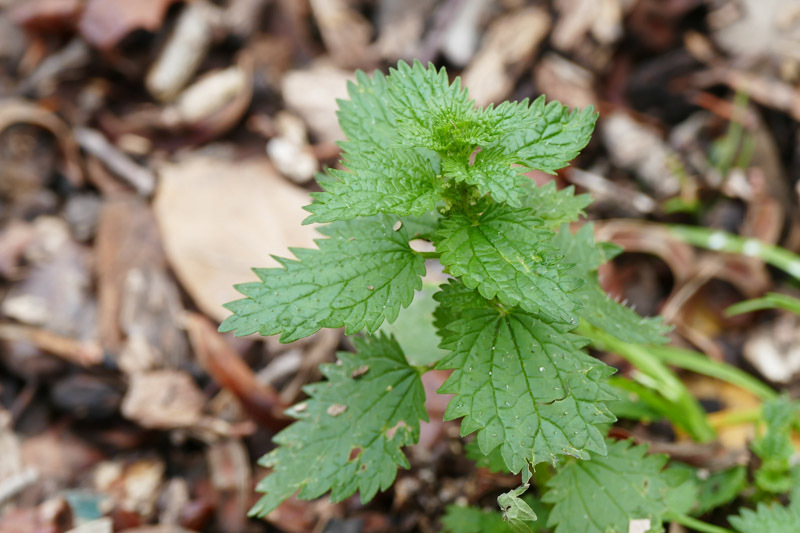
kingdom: Plantae
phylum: Tracheophyta
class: Magnoliopsida
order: Rosales
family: Urticaceae
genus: Urtica
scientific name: Urtica urens
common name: Dwarf nettle
